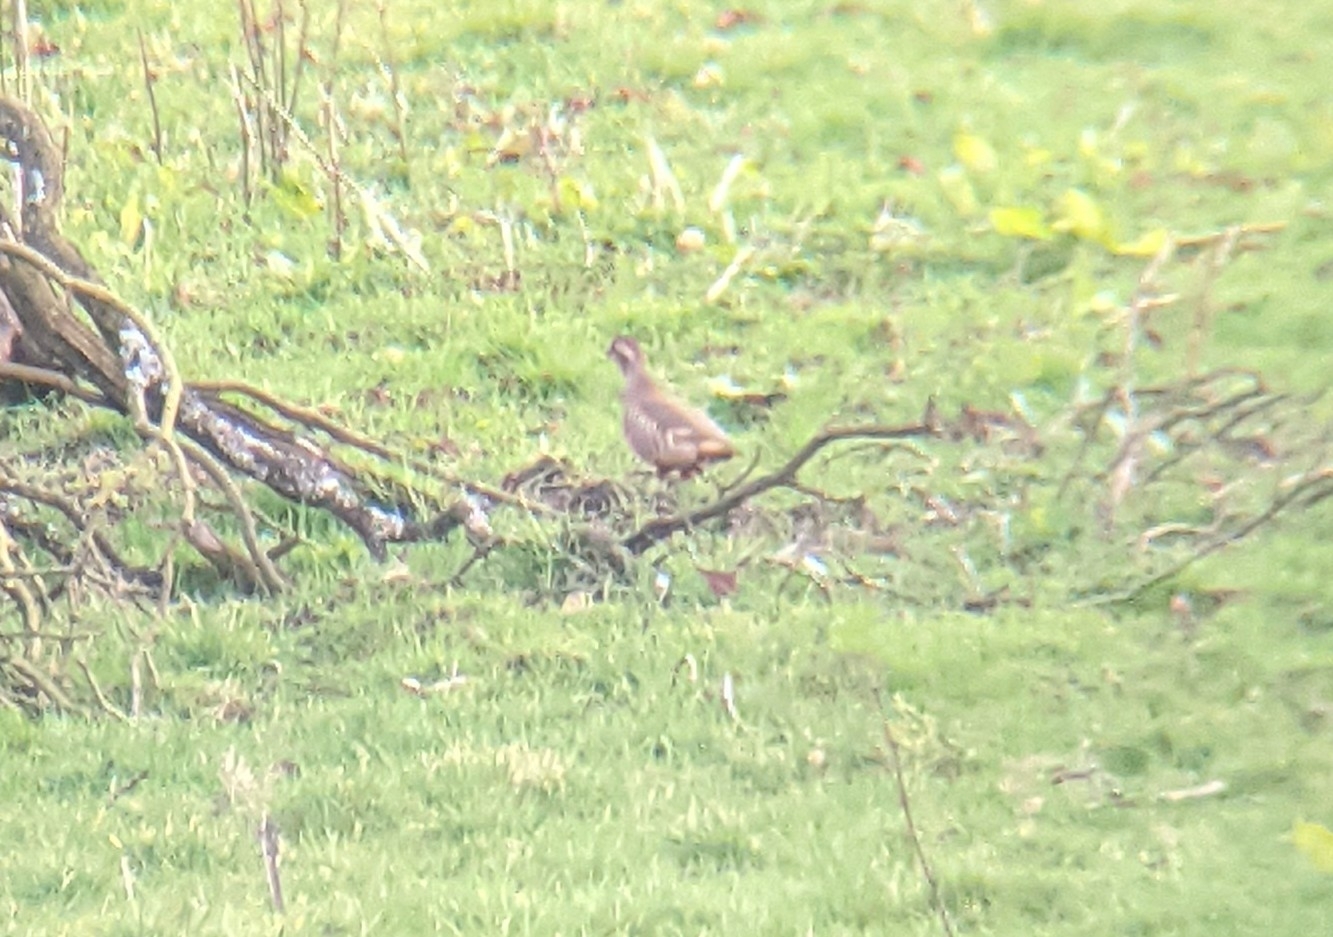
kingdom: Animalia
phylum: Chordata
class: Aves
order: Galliformes
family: Phasianidae
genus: Alectoris
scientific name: Alectoris rufa
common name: Red-legged partridge
